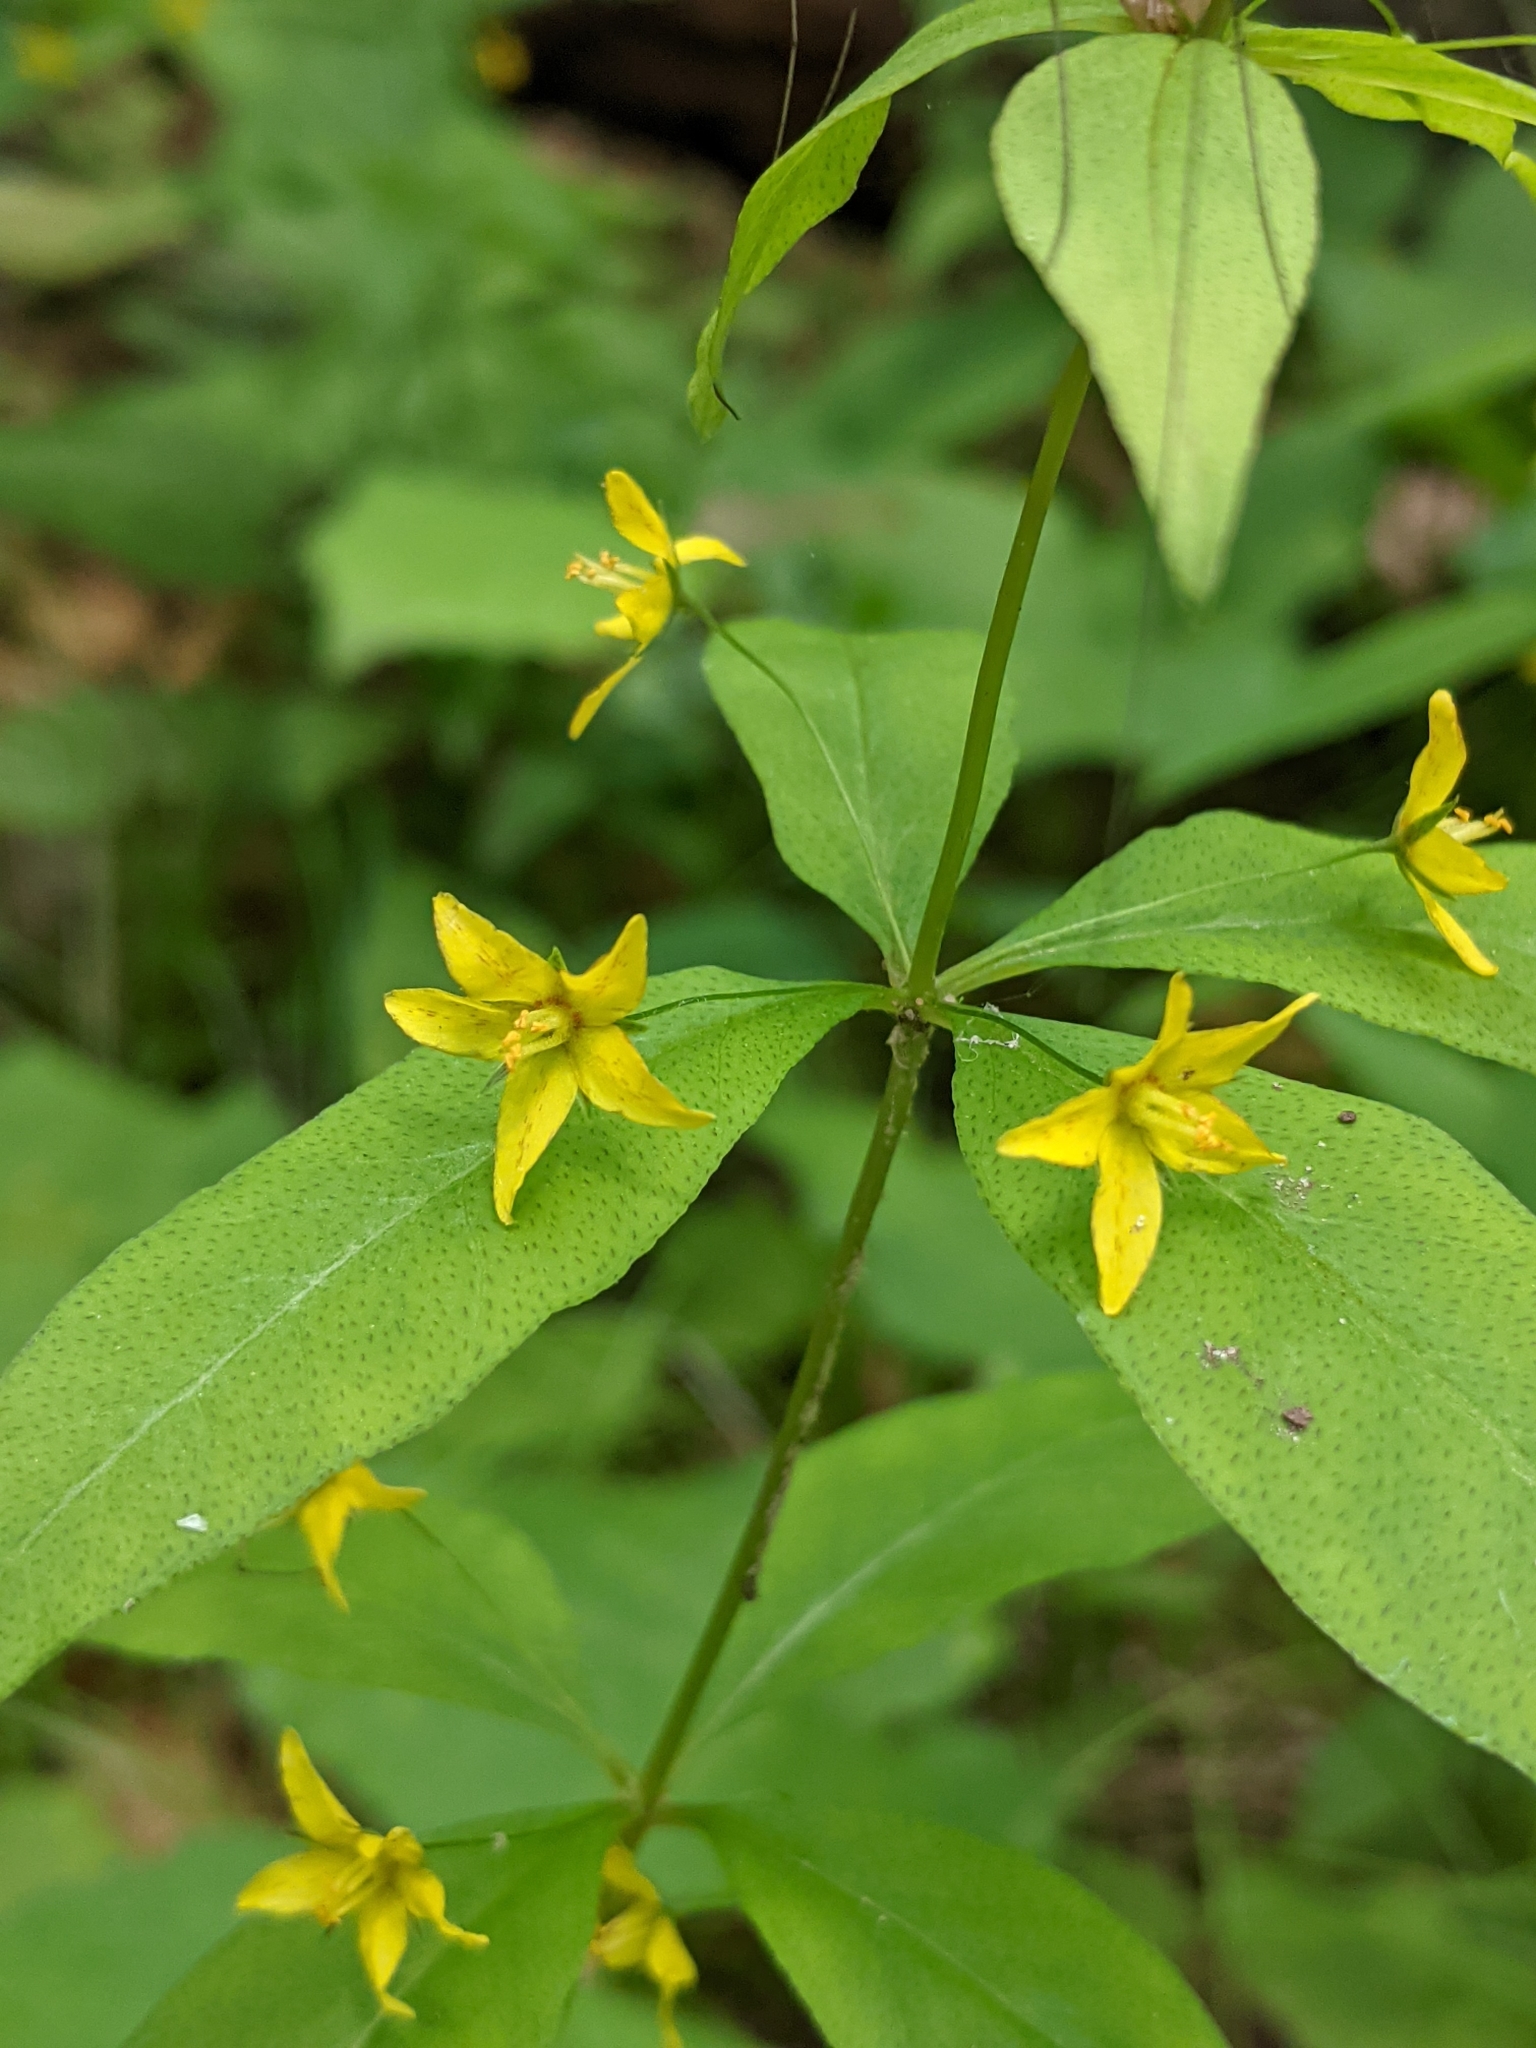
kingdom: Plantae
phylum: Tracheophyta
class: Magnoliopsida
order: Ericales
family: Primulaceae
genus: Lysimachia
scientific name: Lysimachia quadrifolia
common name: Whorled loosestrife
